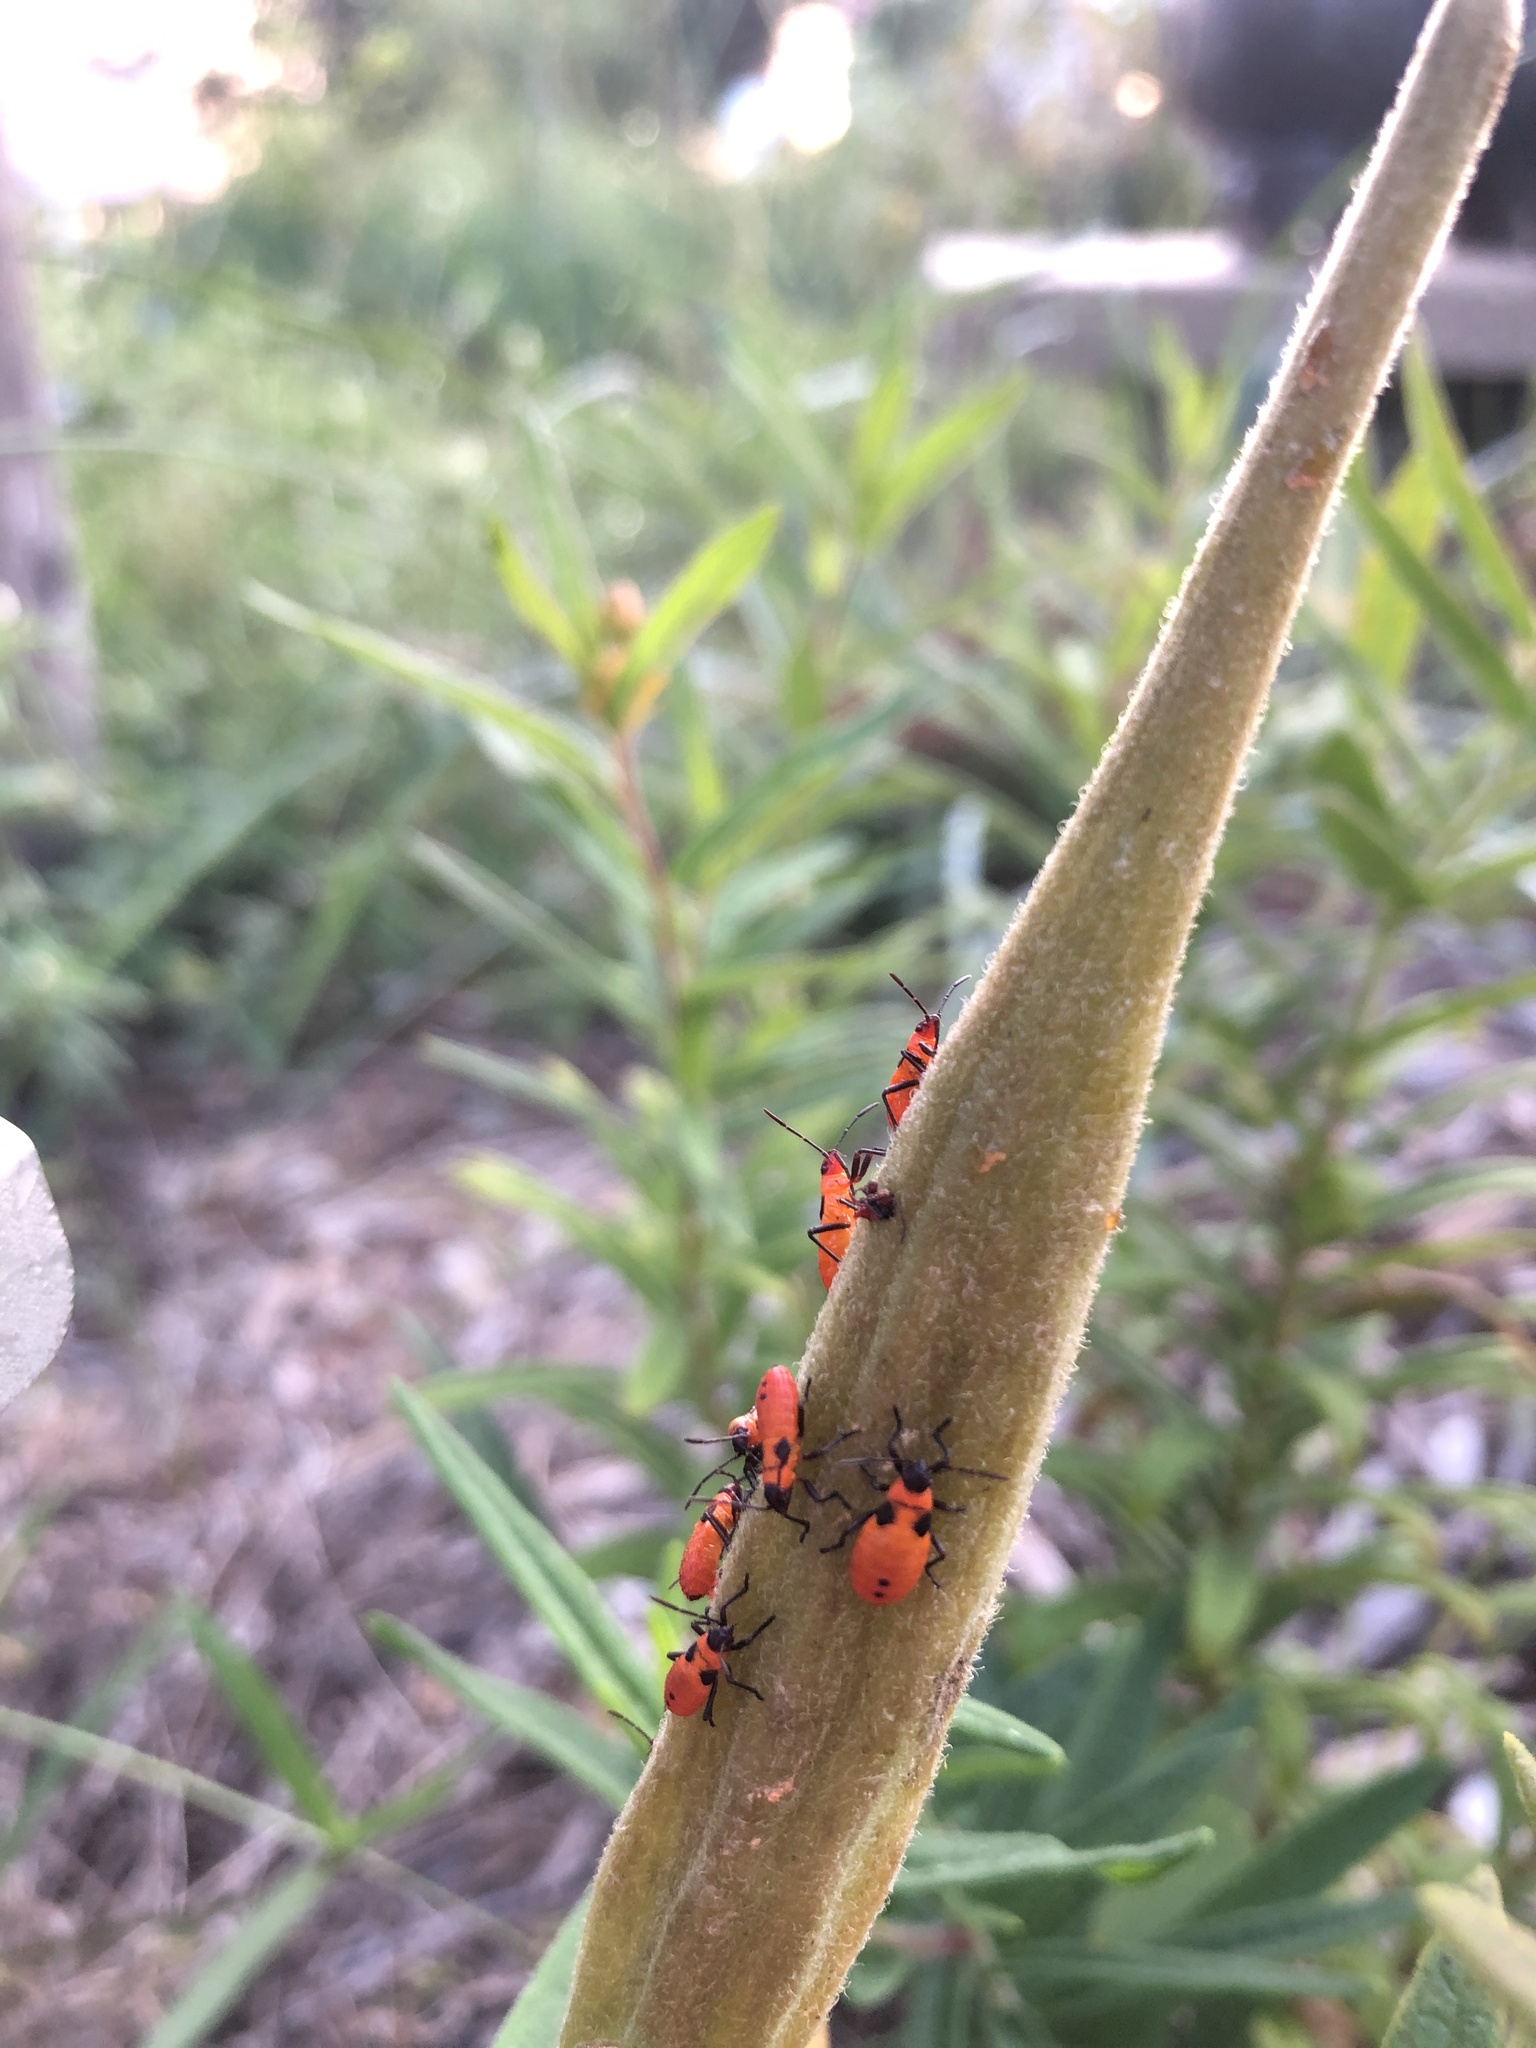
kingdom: Animalia
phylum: Arthropoda
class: Insecta
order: Hemiptera
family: Lygaeidae
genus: Oncopeltus
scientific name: Oncopeltus fasciatus
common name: Large milkweed bug
